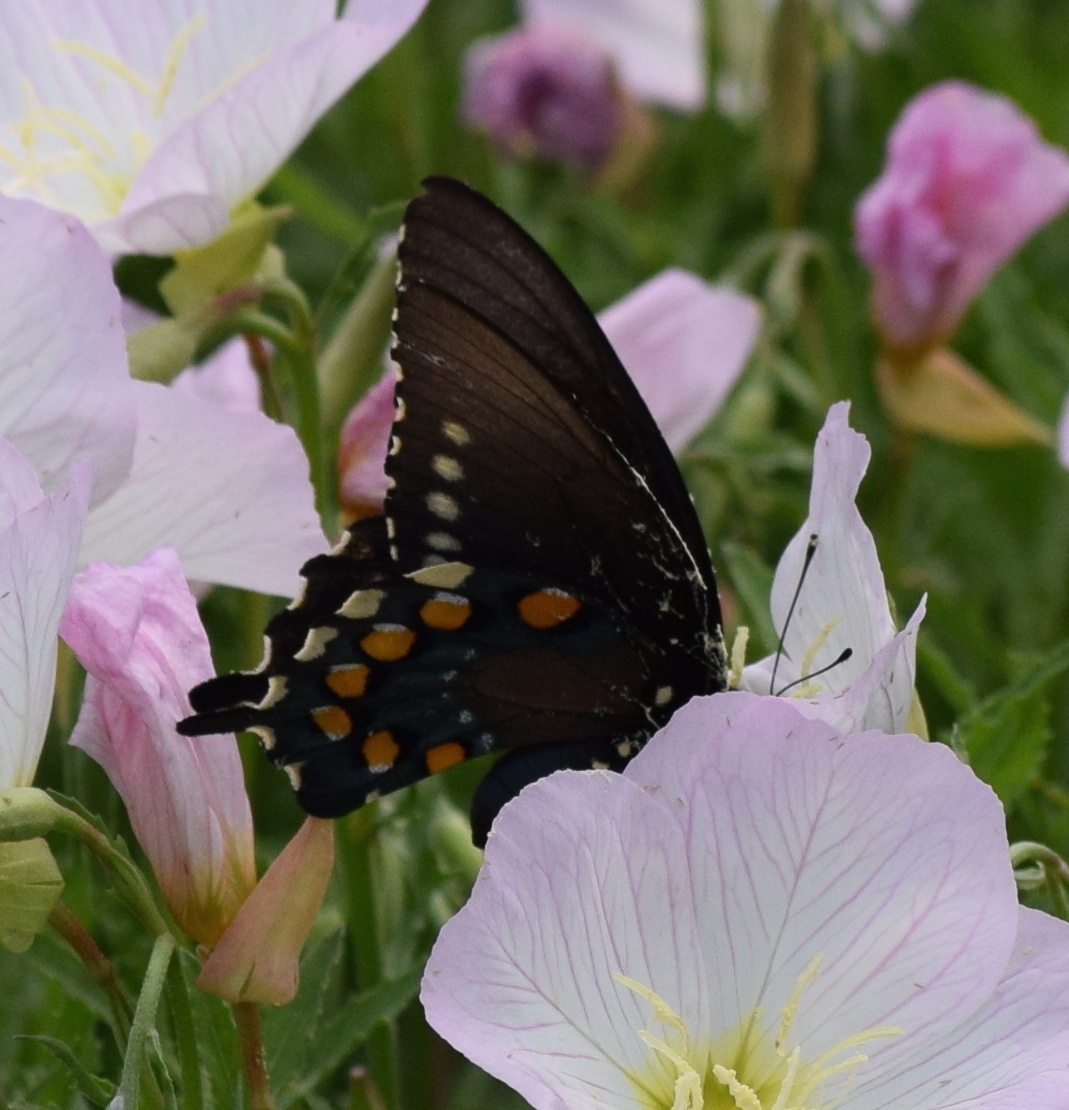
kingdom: Animalia
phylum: Arthropoda
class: Insecta
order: Lepidoptera
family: Papilionidae
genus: Battus
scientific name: Battus philenor
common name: Pipevine swallowtail
